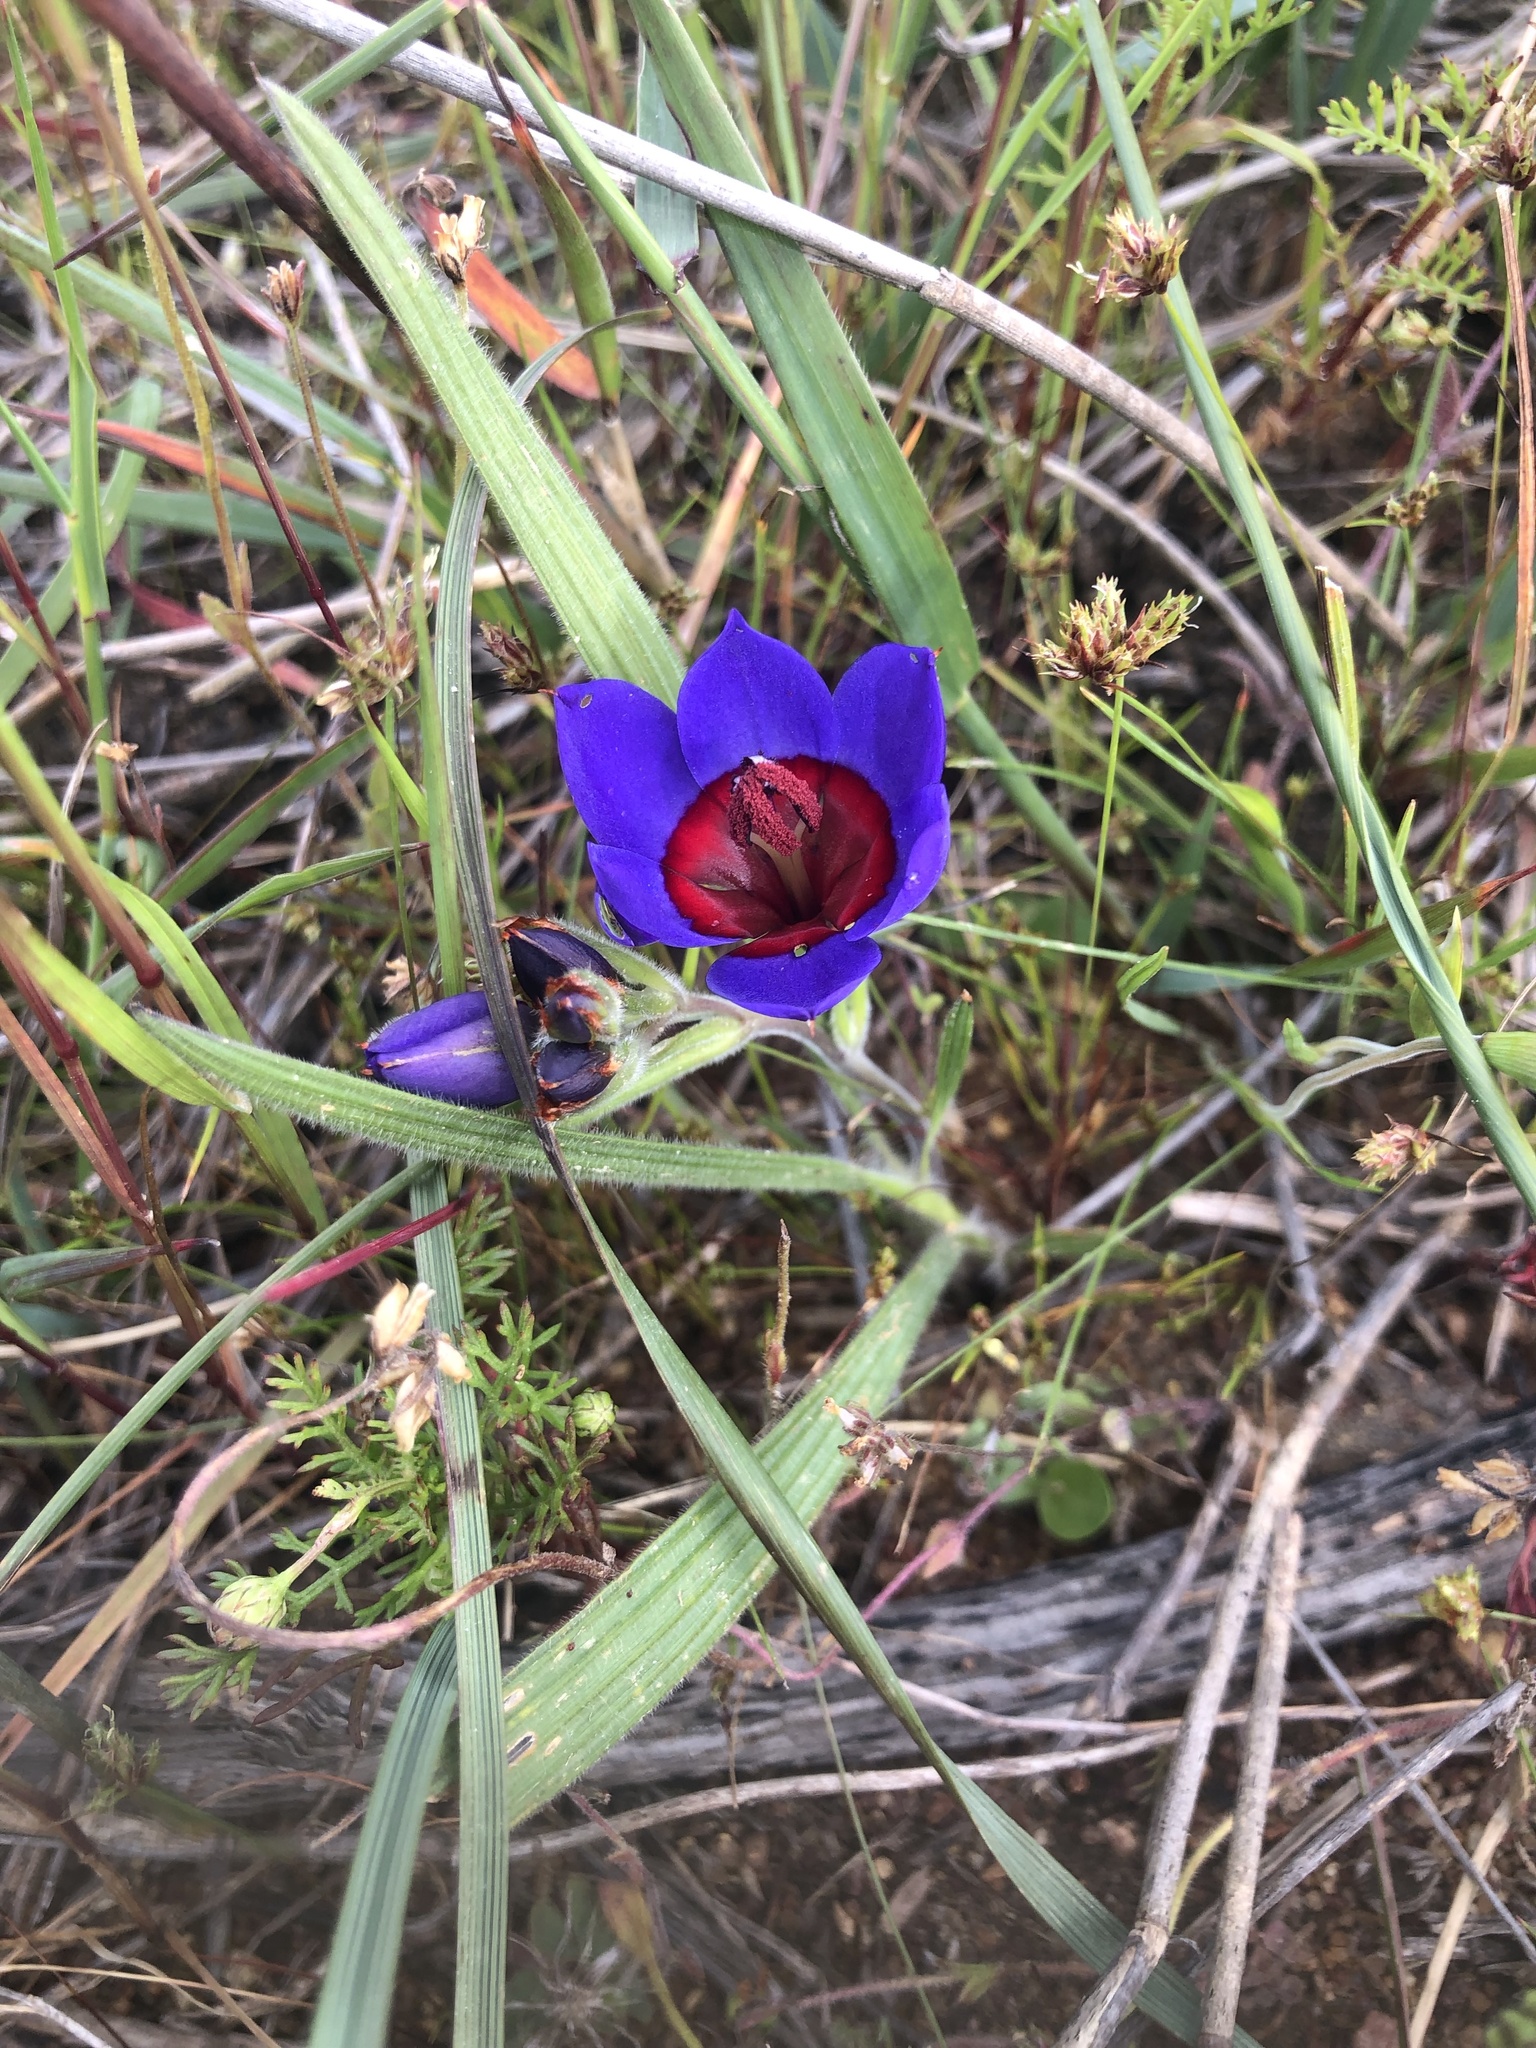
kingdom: Plantae
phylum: Tracheophyta
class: Liliopsida
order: Asparagales
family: Iridaceae
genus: Babiana
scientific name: Babiana rubrocyanea
